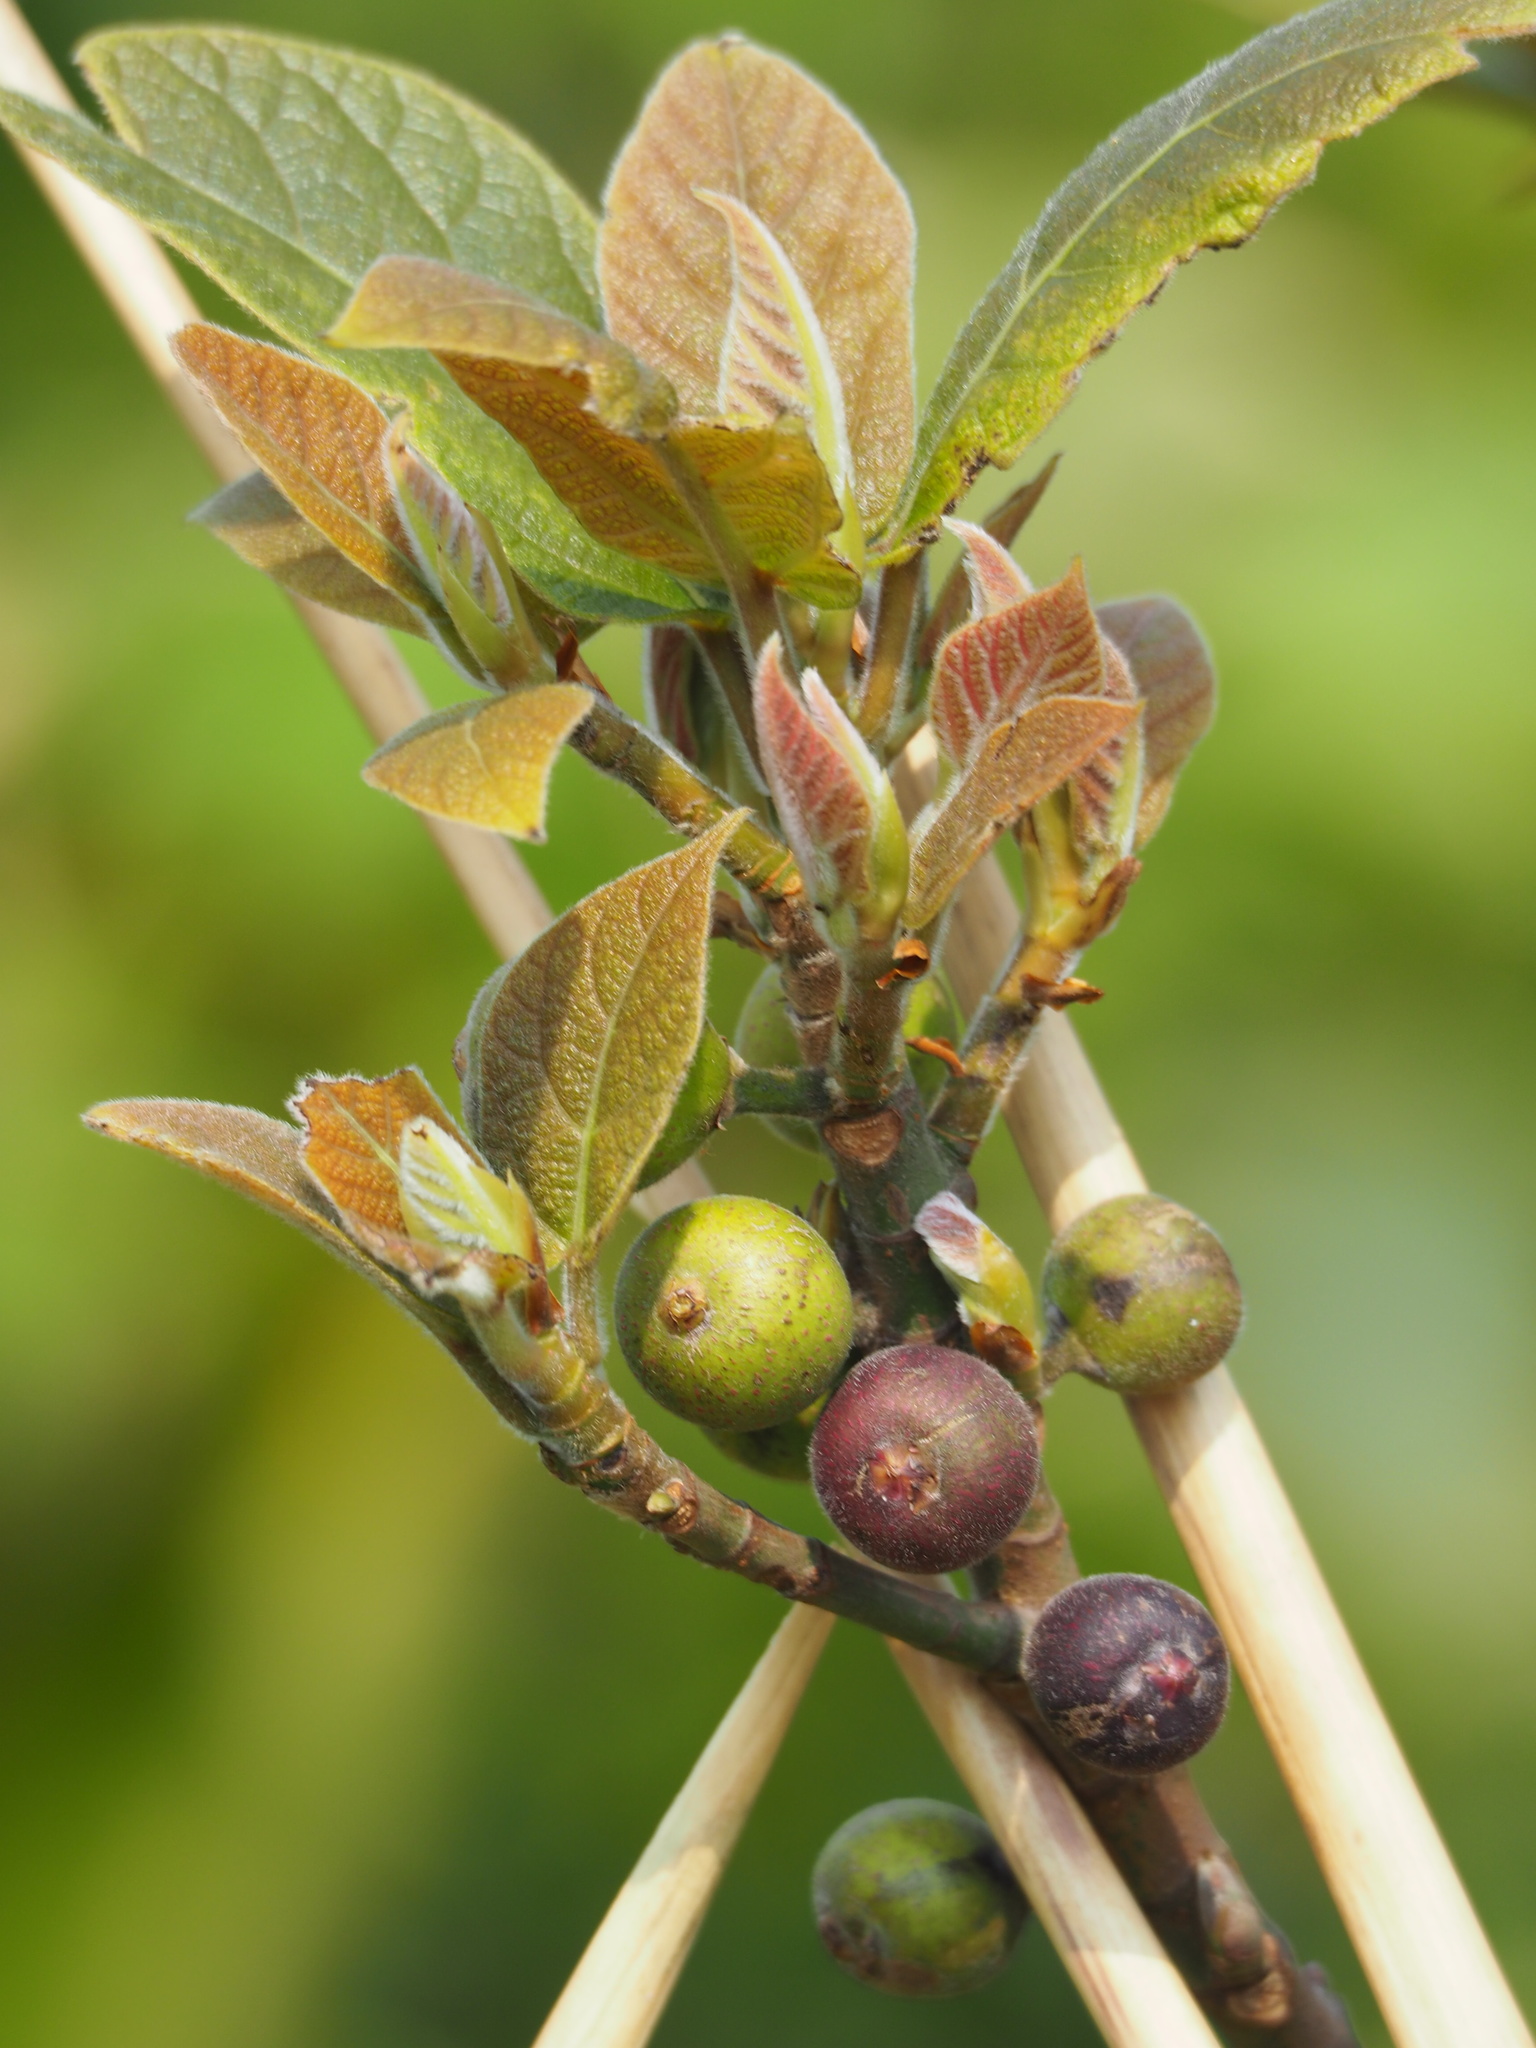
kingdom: Plantae
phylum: Tracheophyta
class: Magnoliopsida
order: Rosales
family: Moraceae
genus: Ficus
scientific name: Ficus erecta
